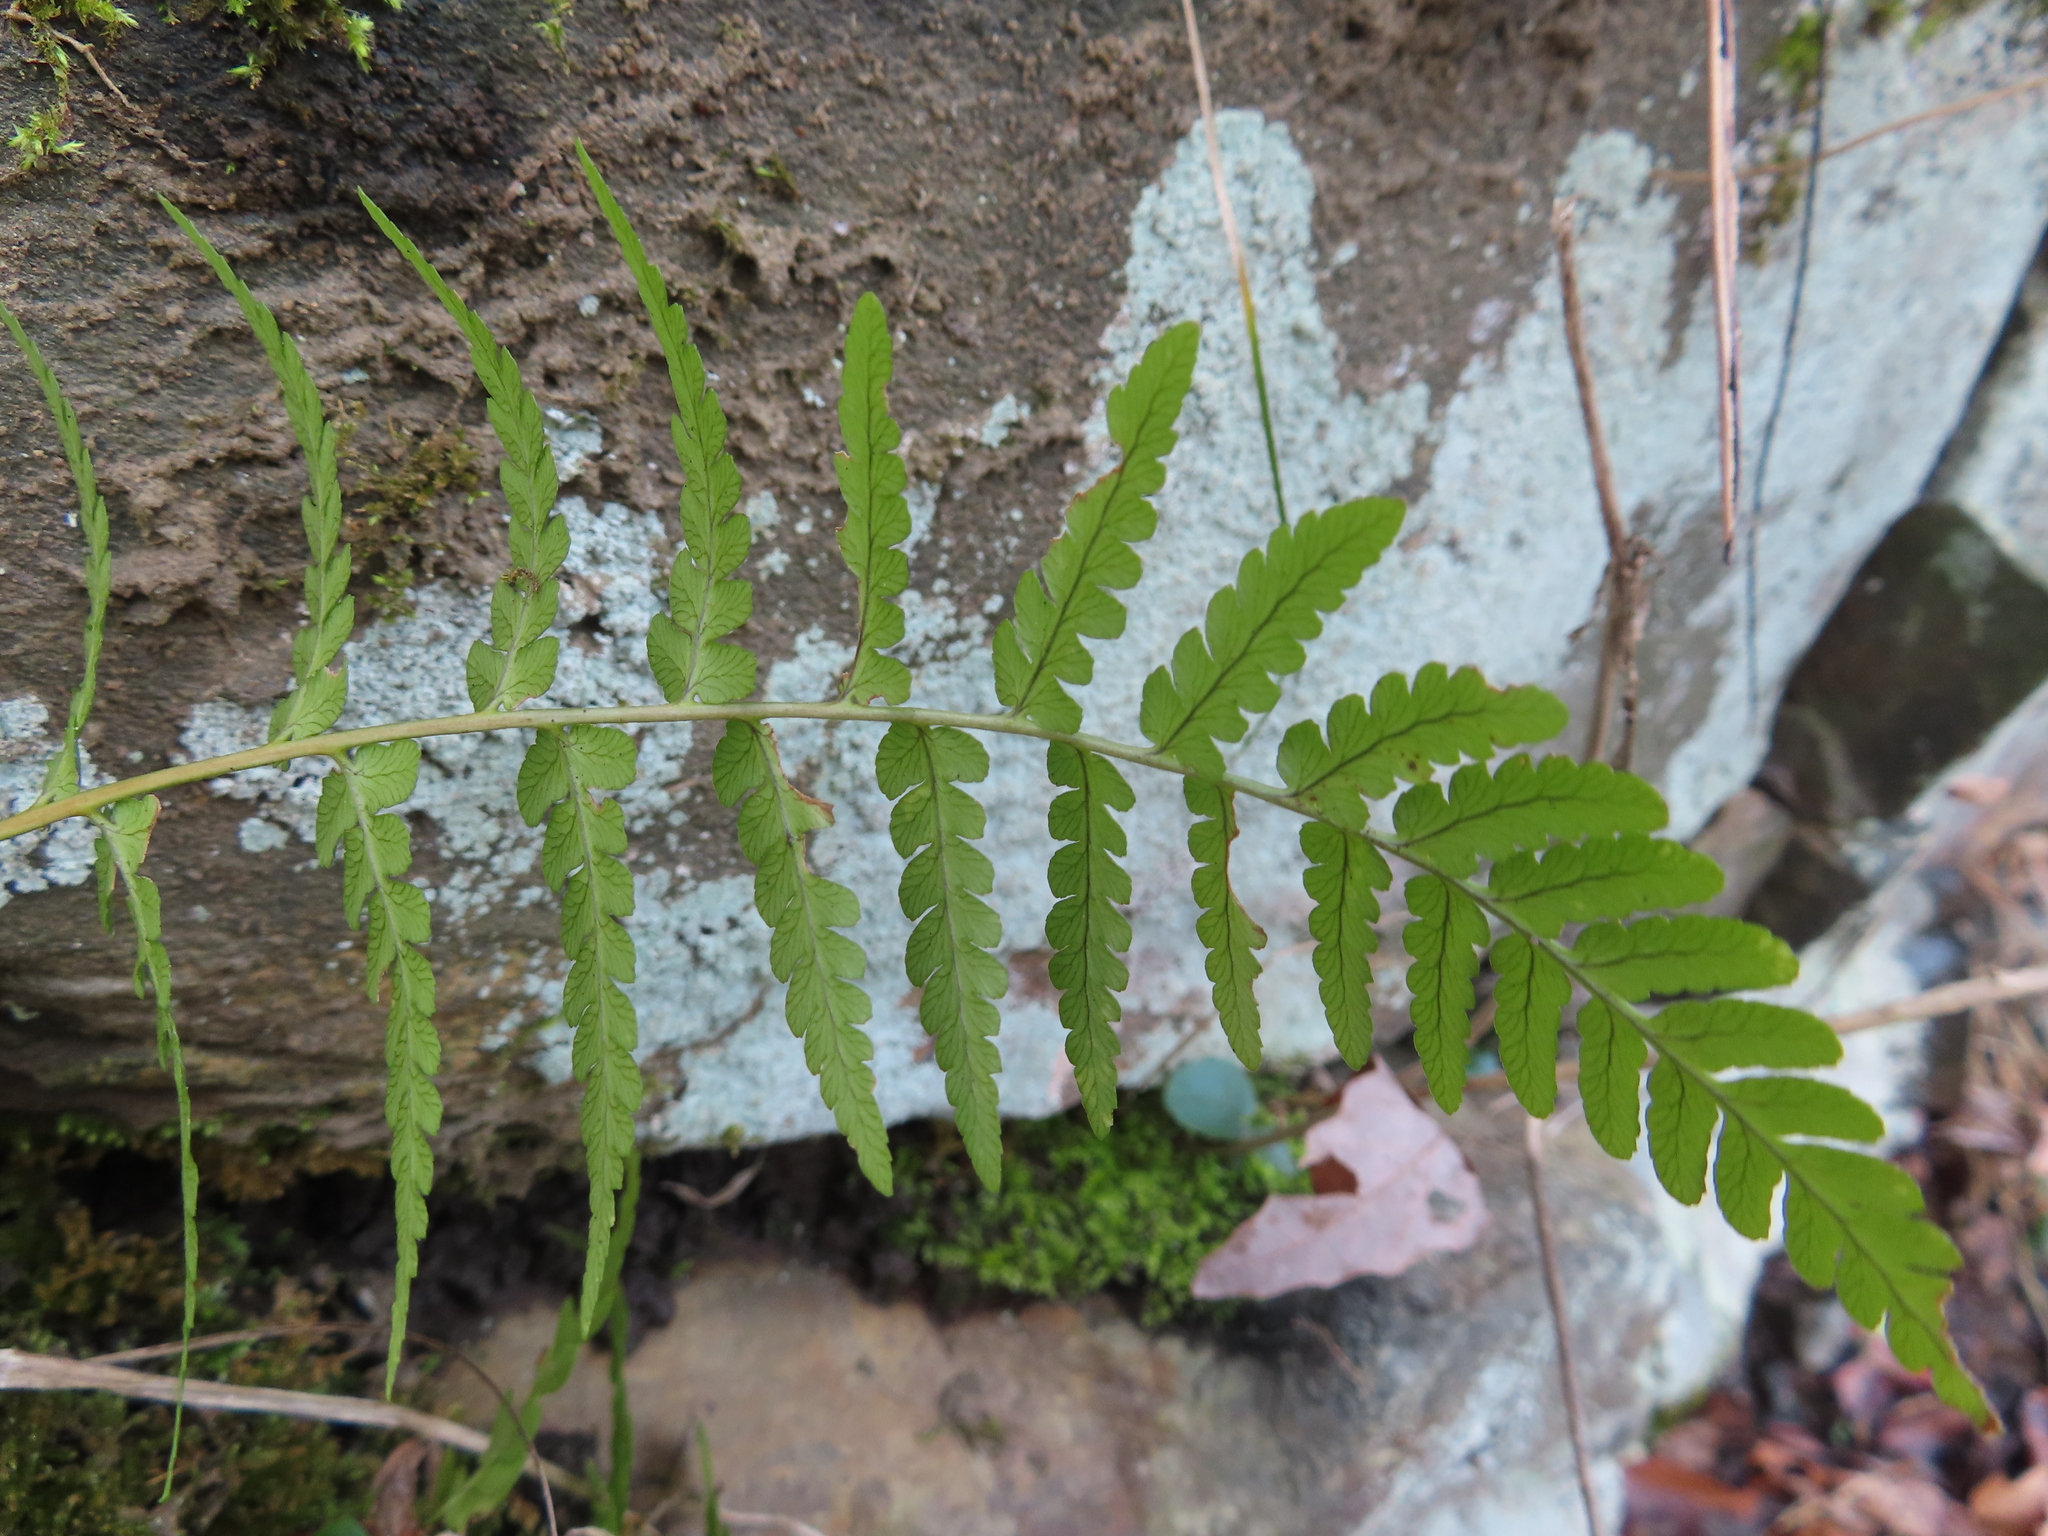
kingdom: Plantae
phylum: Tracheophyta
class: Polypodiopsida
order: Polypodiales
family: Dryopteridaceae
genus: Dryopteris
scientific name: Dryopteris marginalis
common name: Marginal wood fern
